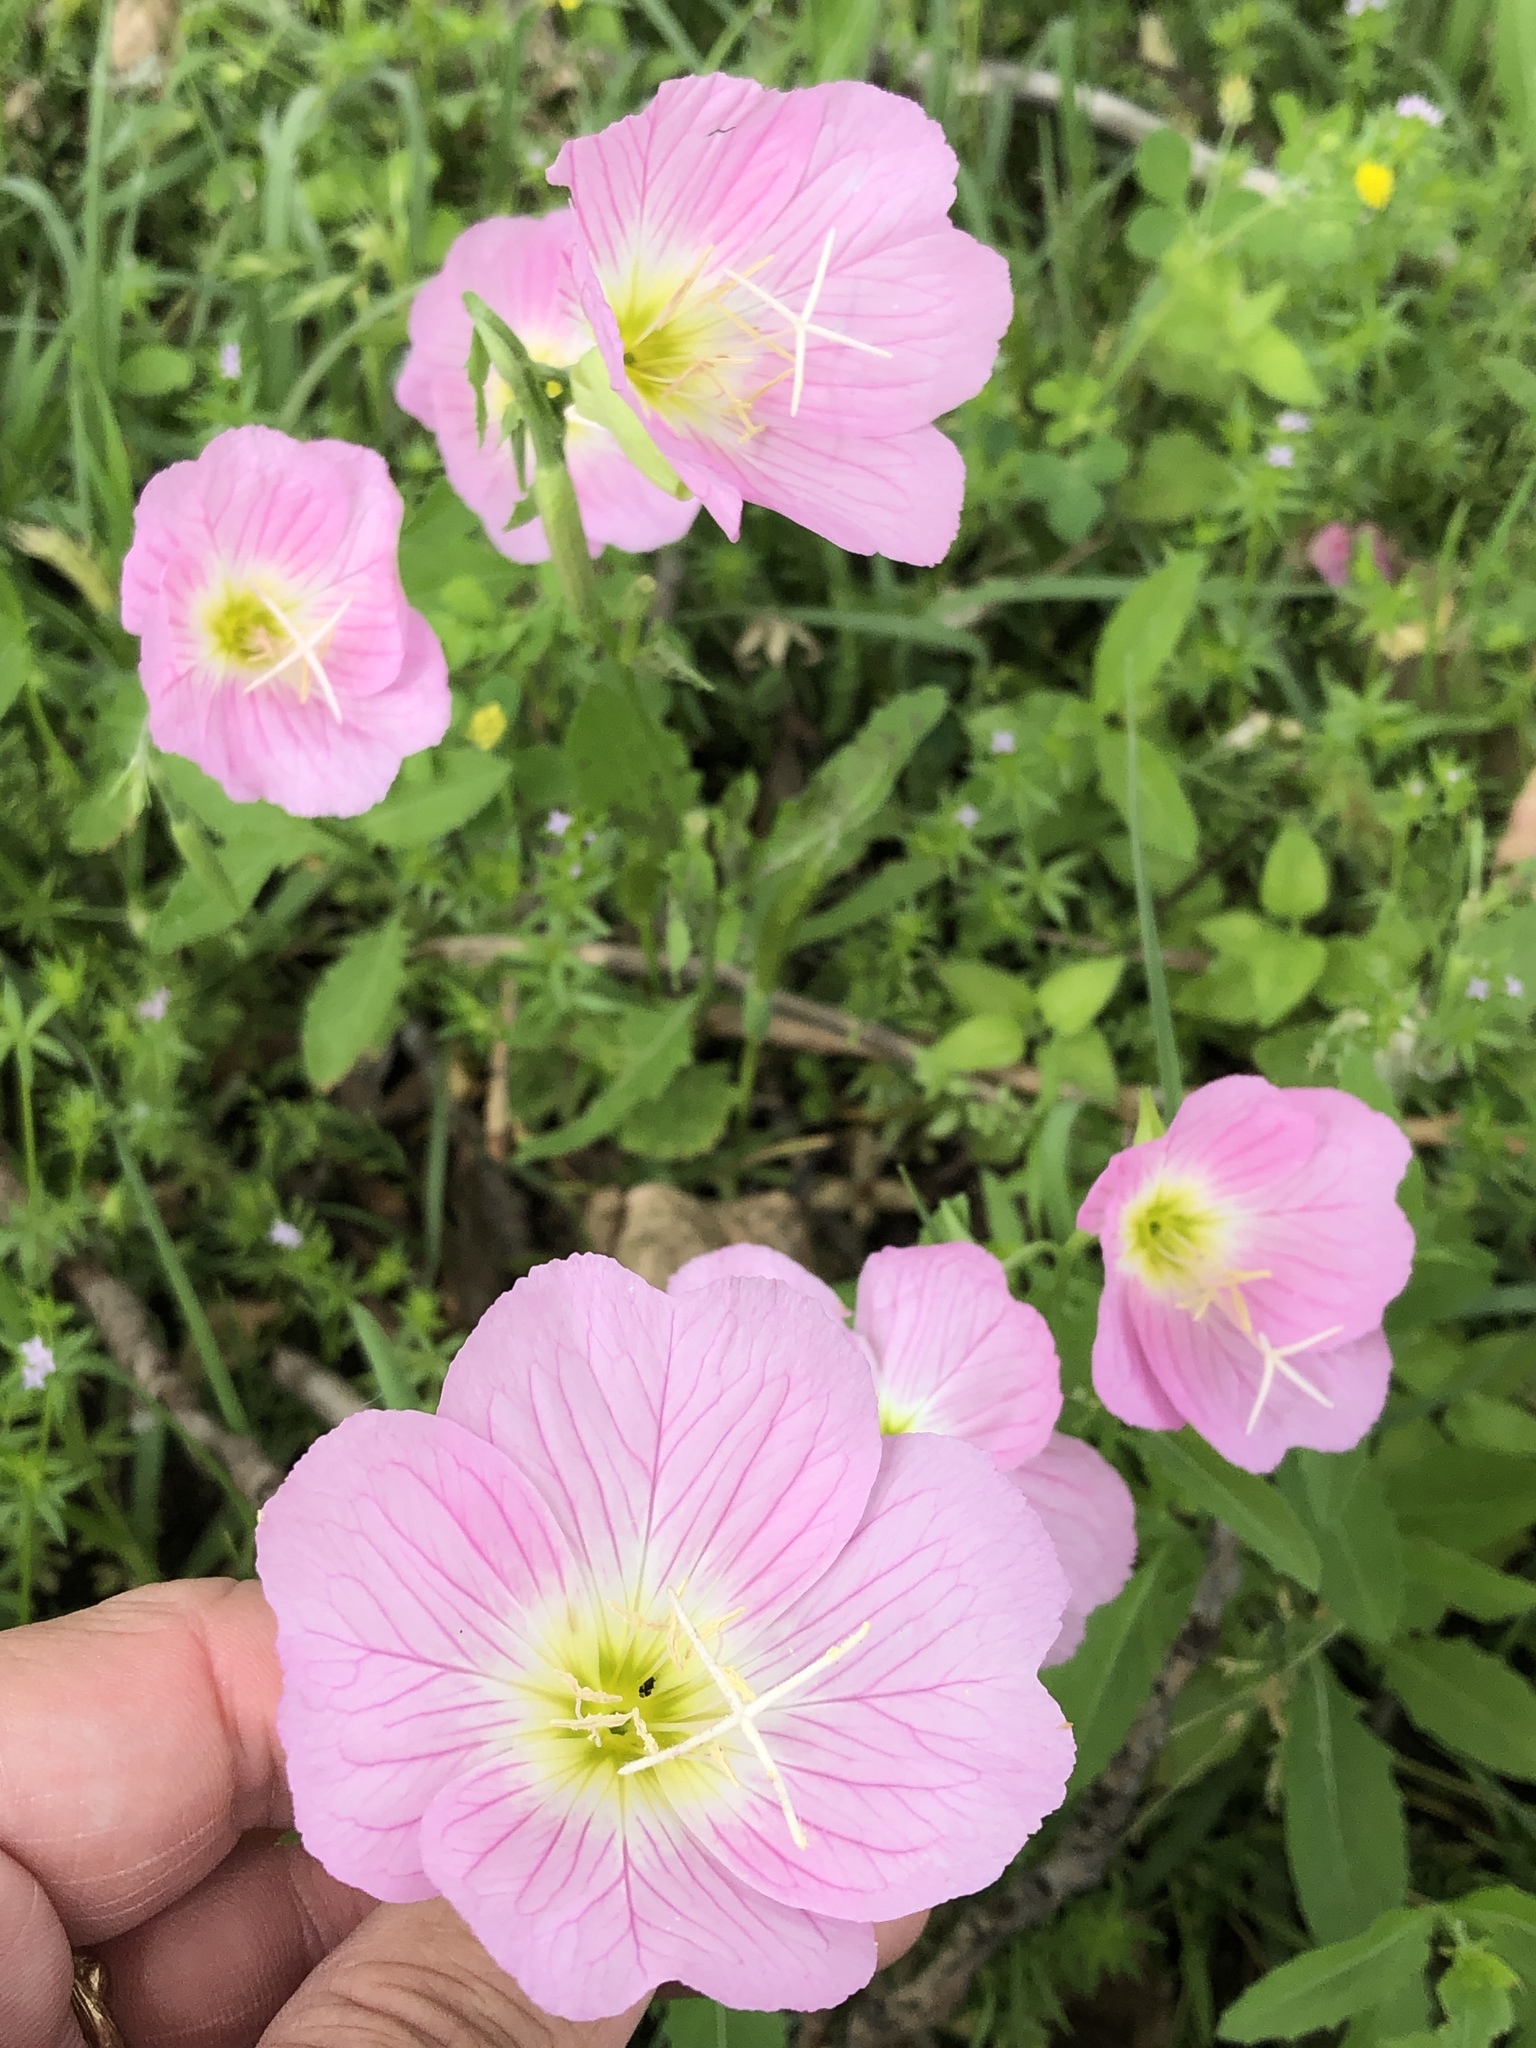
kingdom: Plantae
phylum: Tracheophyta
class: Magnoliopsida
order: Myrtales
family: Onagraceae
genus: Oenothera
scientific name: Oenothera speciosa
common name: White evening-primrose
